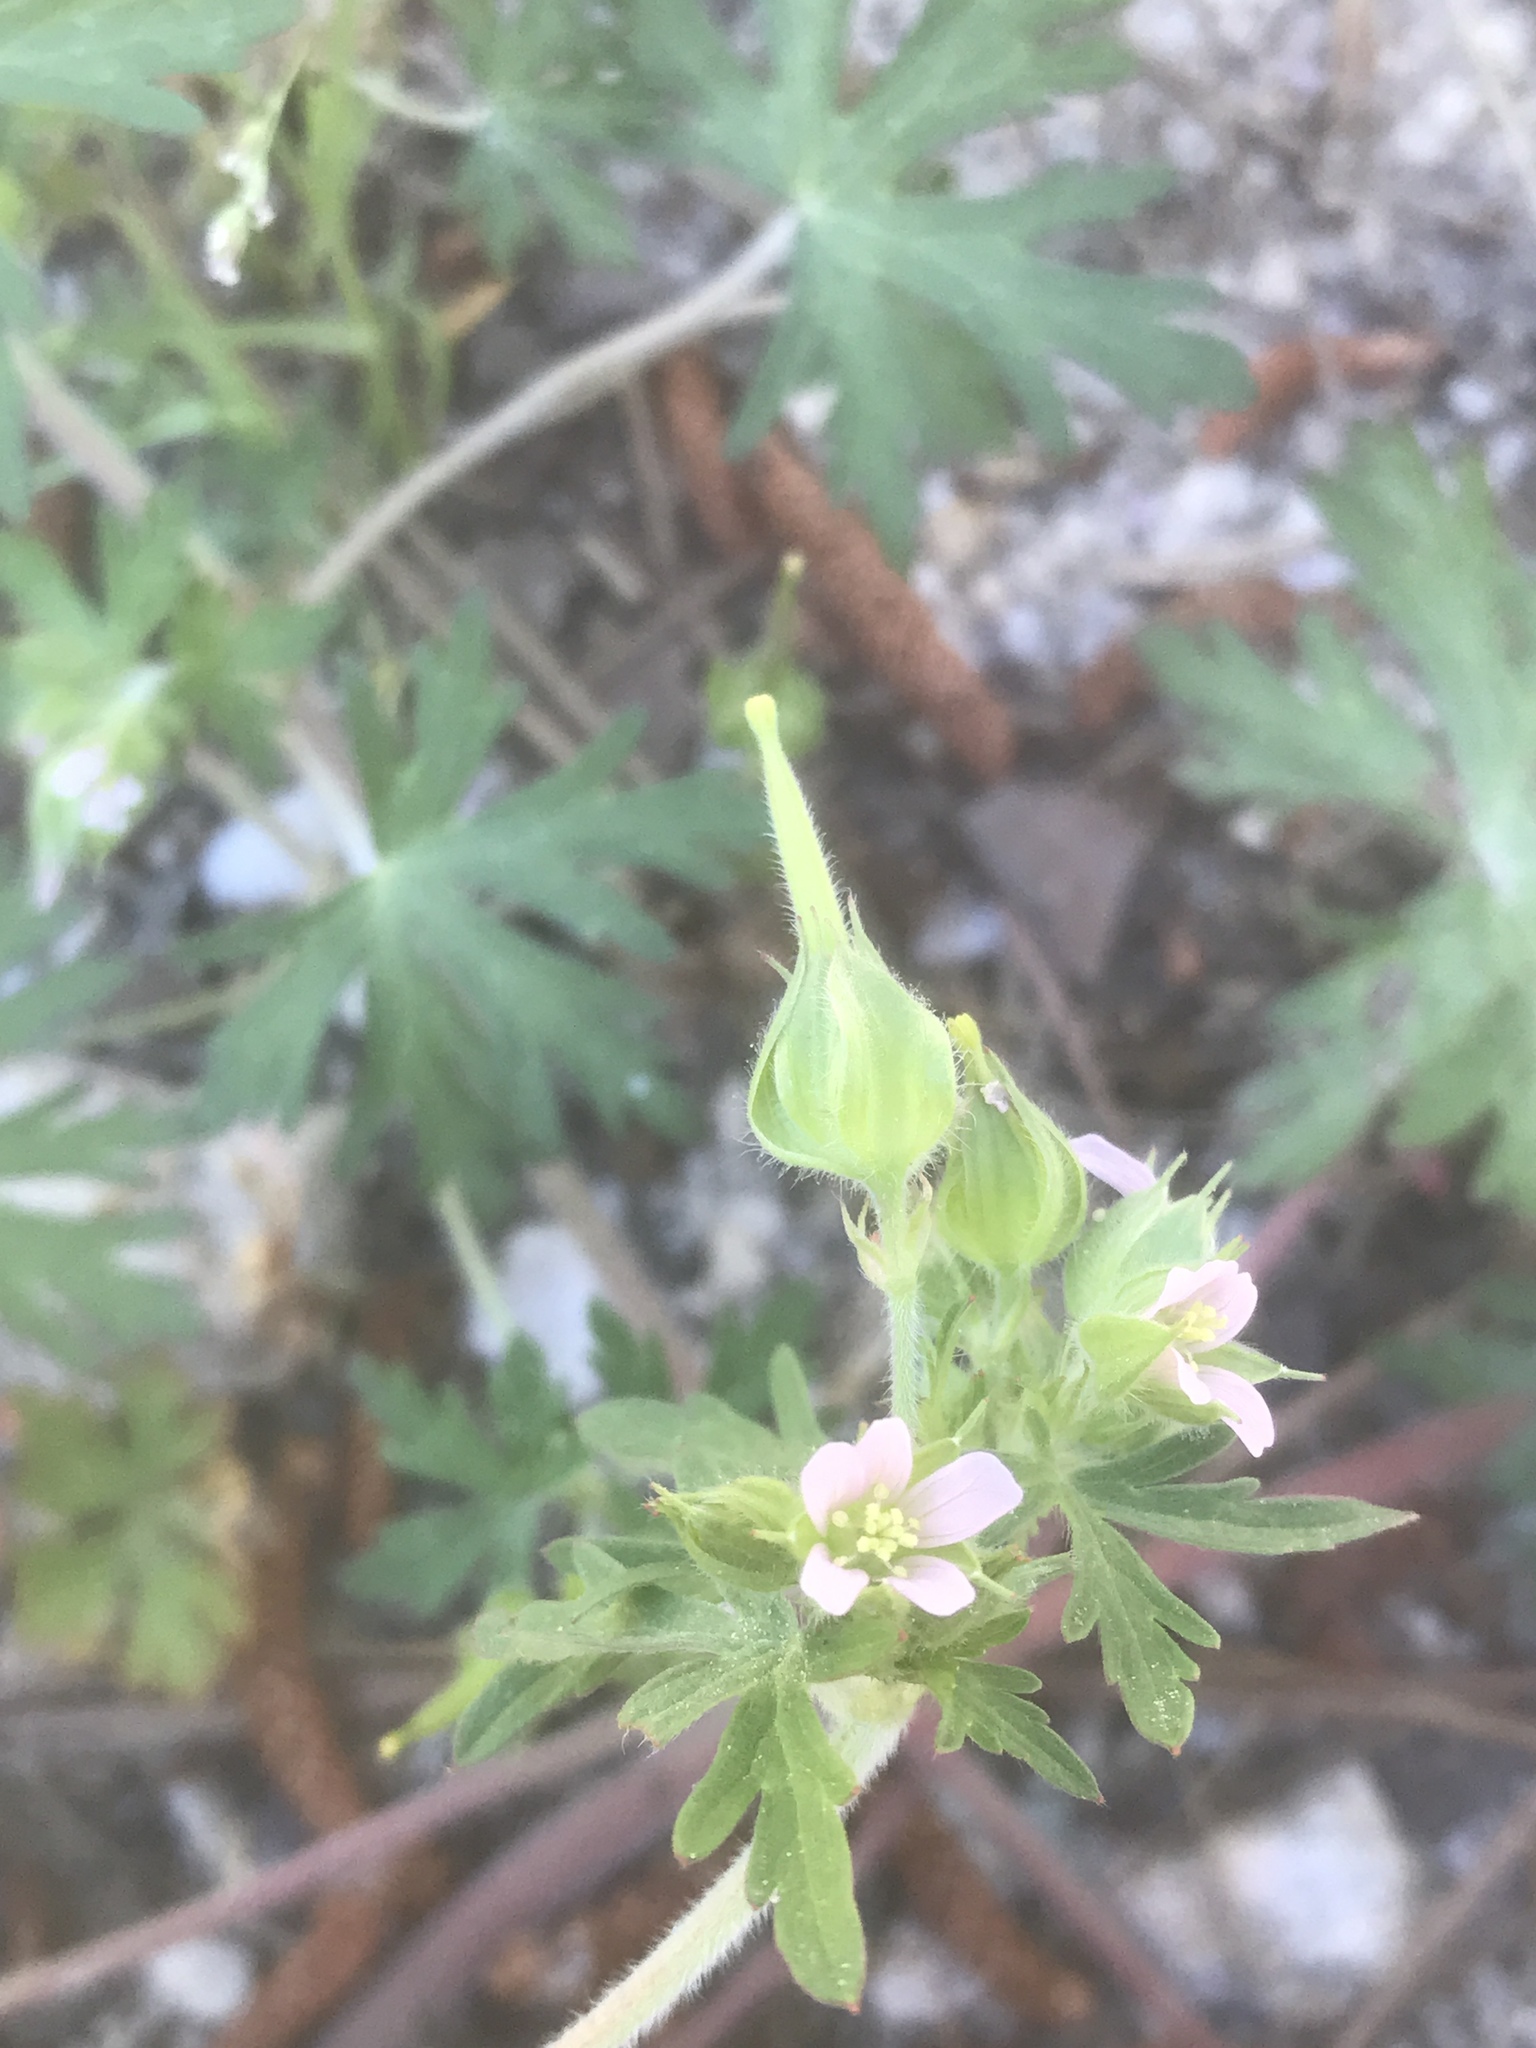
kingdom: Plantae
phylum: Tracheophyta
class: Magnoliopsida
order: Geraniales
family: Geraniaceae
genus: Geranium
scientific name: Geranium carolinianum
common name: Carolina crane's-bill
